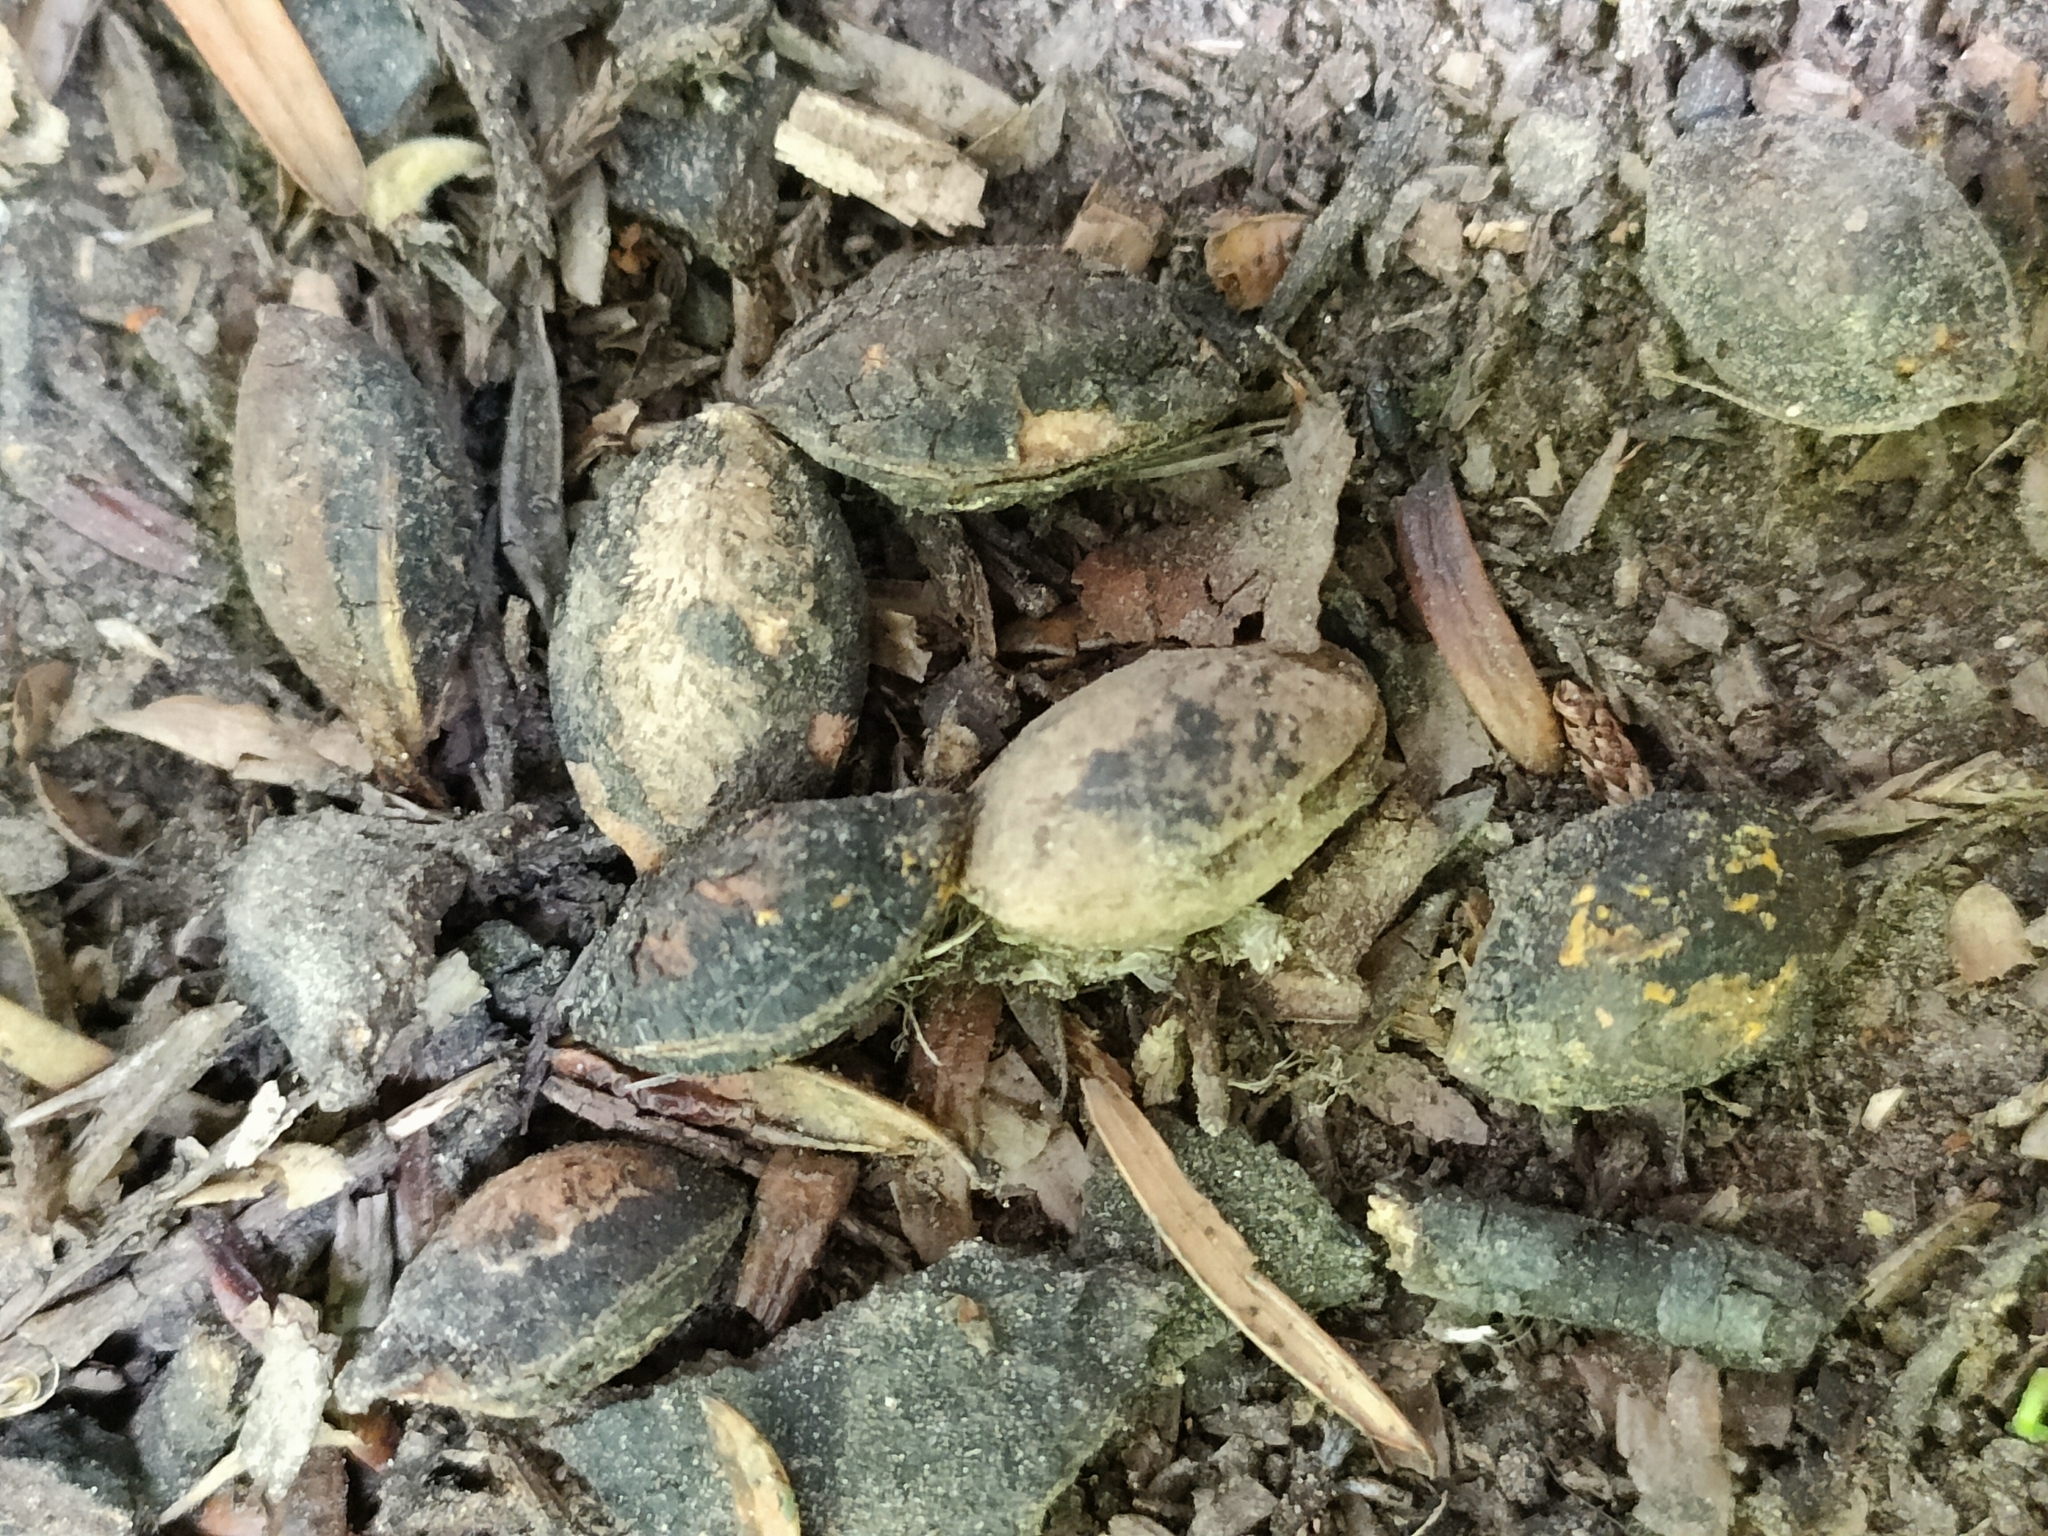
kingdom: Plantae
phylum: Tracheophyta
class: Pinopsida
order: Pinales
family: Podocarpaceae
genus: Prumnopitys
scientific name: Prumnopitys ferruginea
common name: Brown pine
